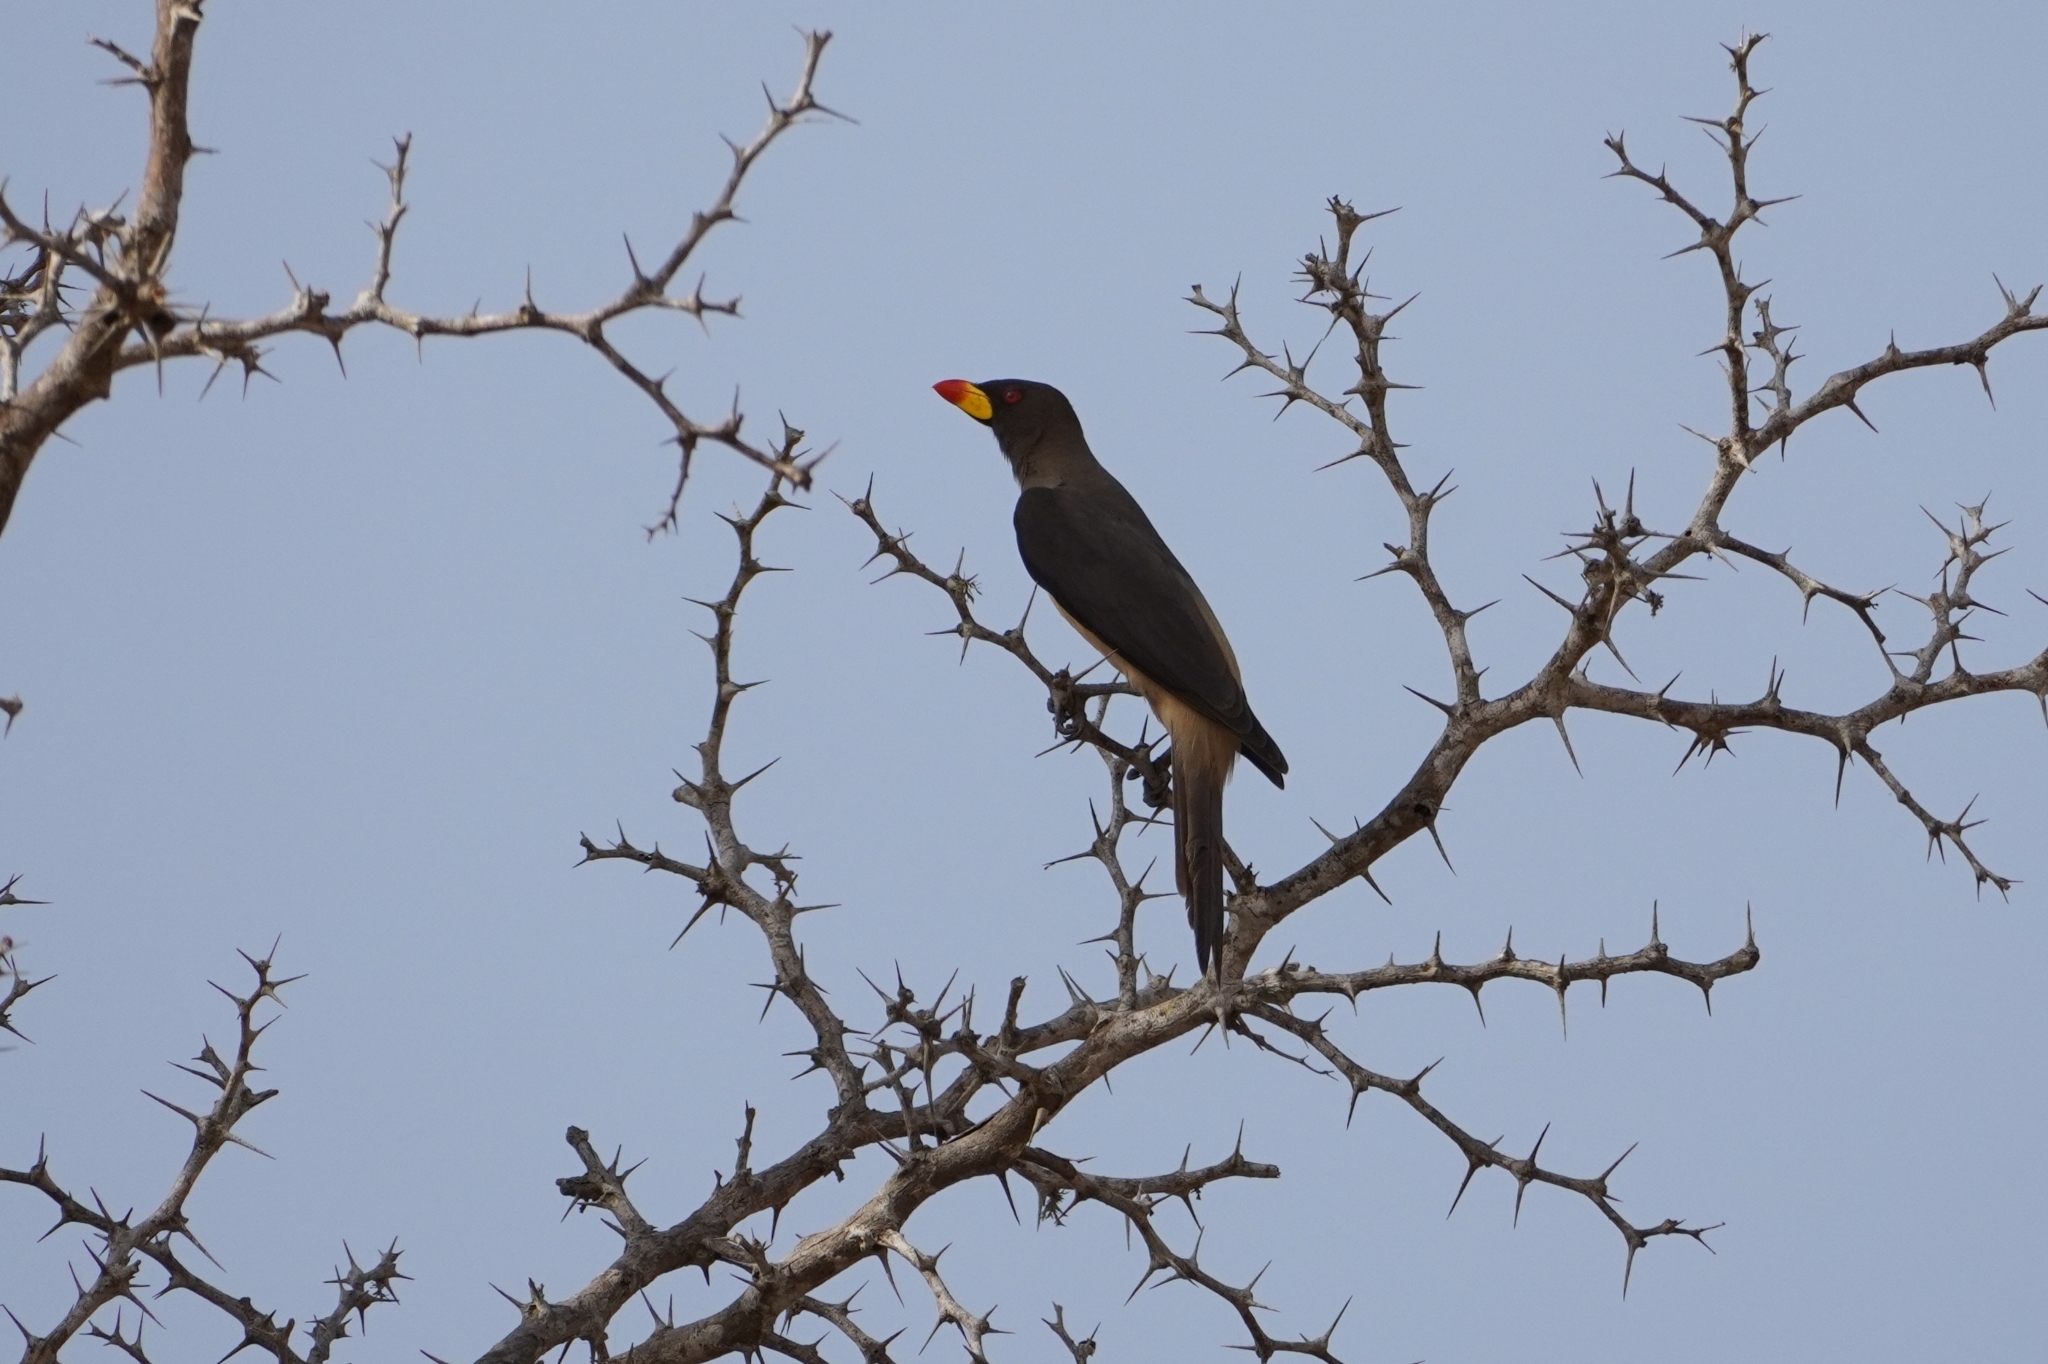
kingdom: Animalia
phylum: Chordata
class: Aves
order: Passeriformes
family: Buphagidae
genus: Buphagus
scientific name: Buphagus africanus
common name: Yellow-billed oxpecker
